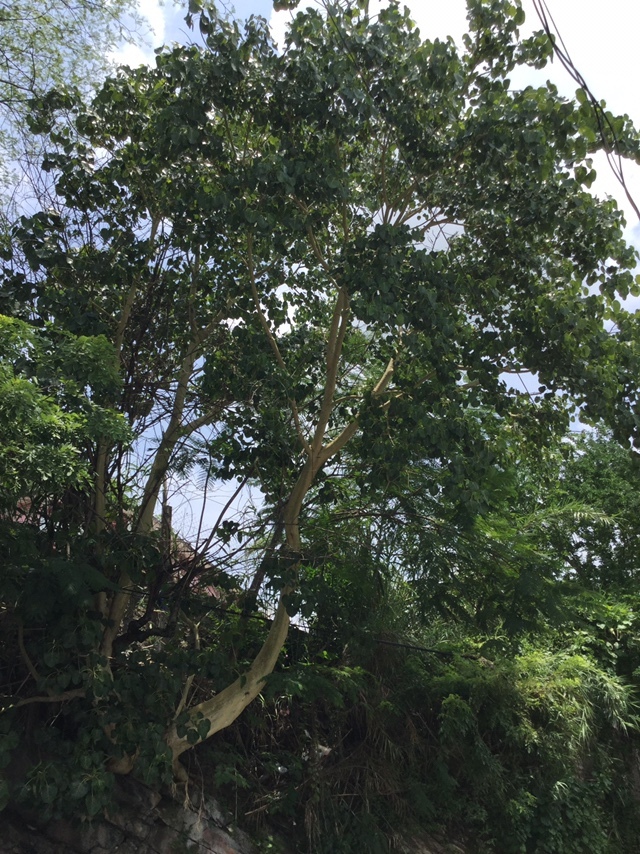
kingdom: Plantae
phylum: Tracheophyta
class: Magnoliopsida
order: Rosales
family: Moraceae
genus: Ficus
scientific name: Ficus petiolaris
